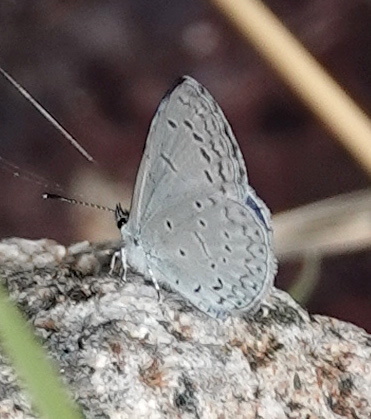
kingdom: Animalia
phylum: Arthropoda
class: Insecta
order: Lepidoptera
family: Lycaenidae
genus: Celastrina
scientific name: Celastrina ladon
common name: Spring azure
